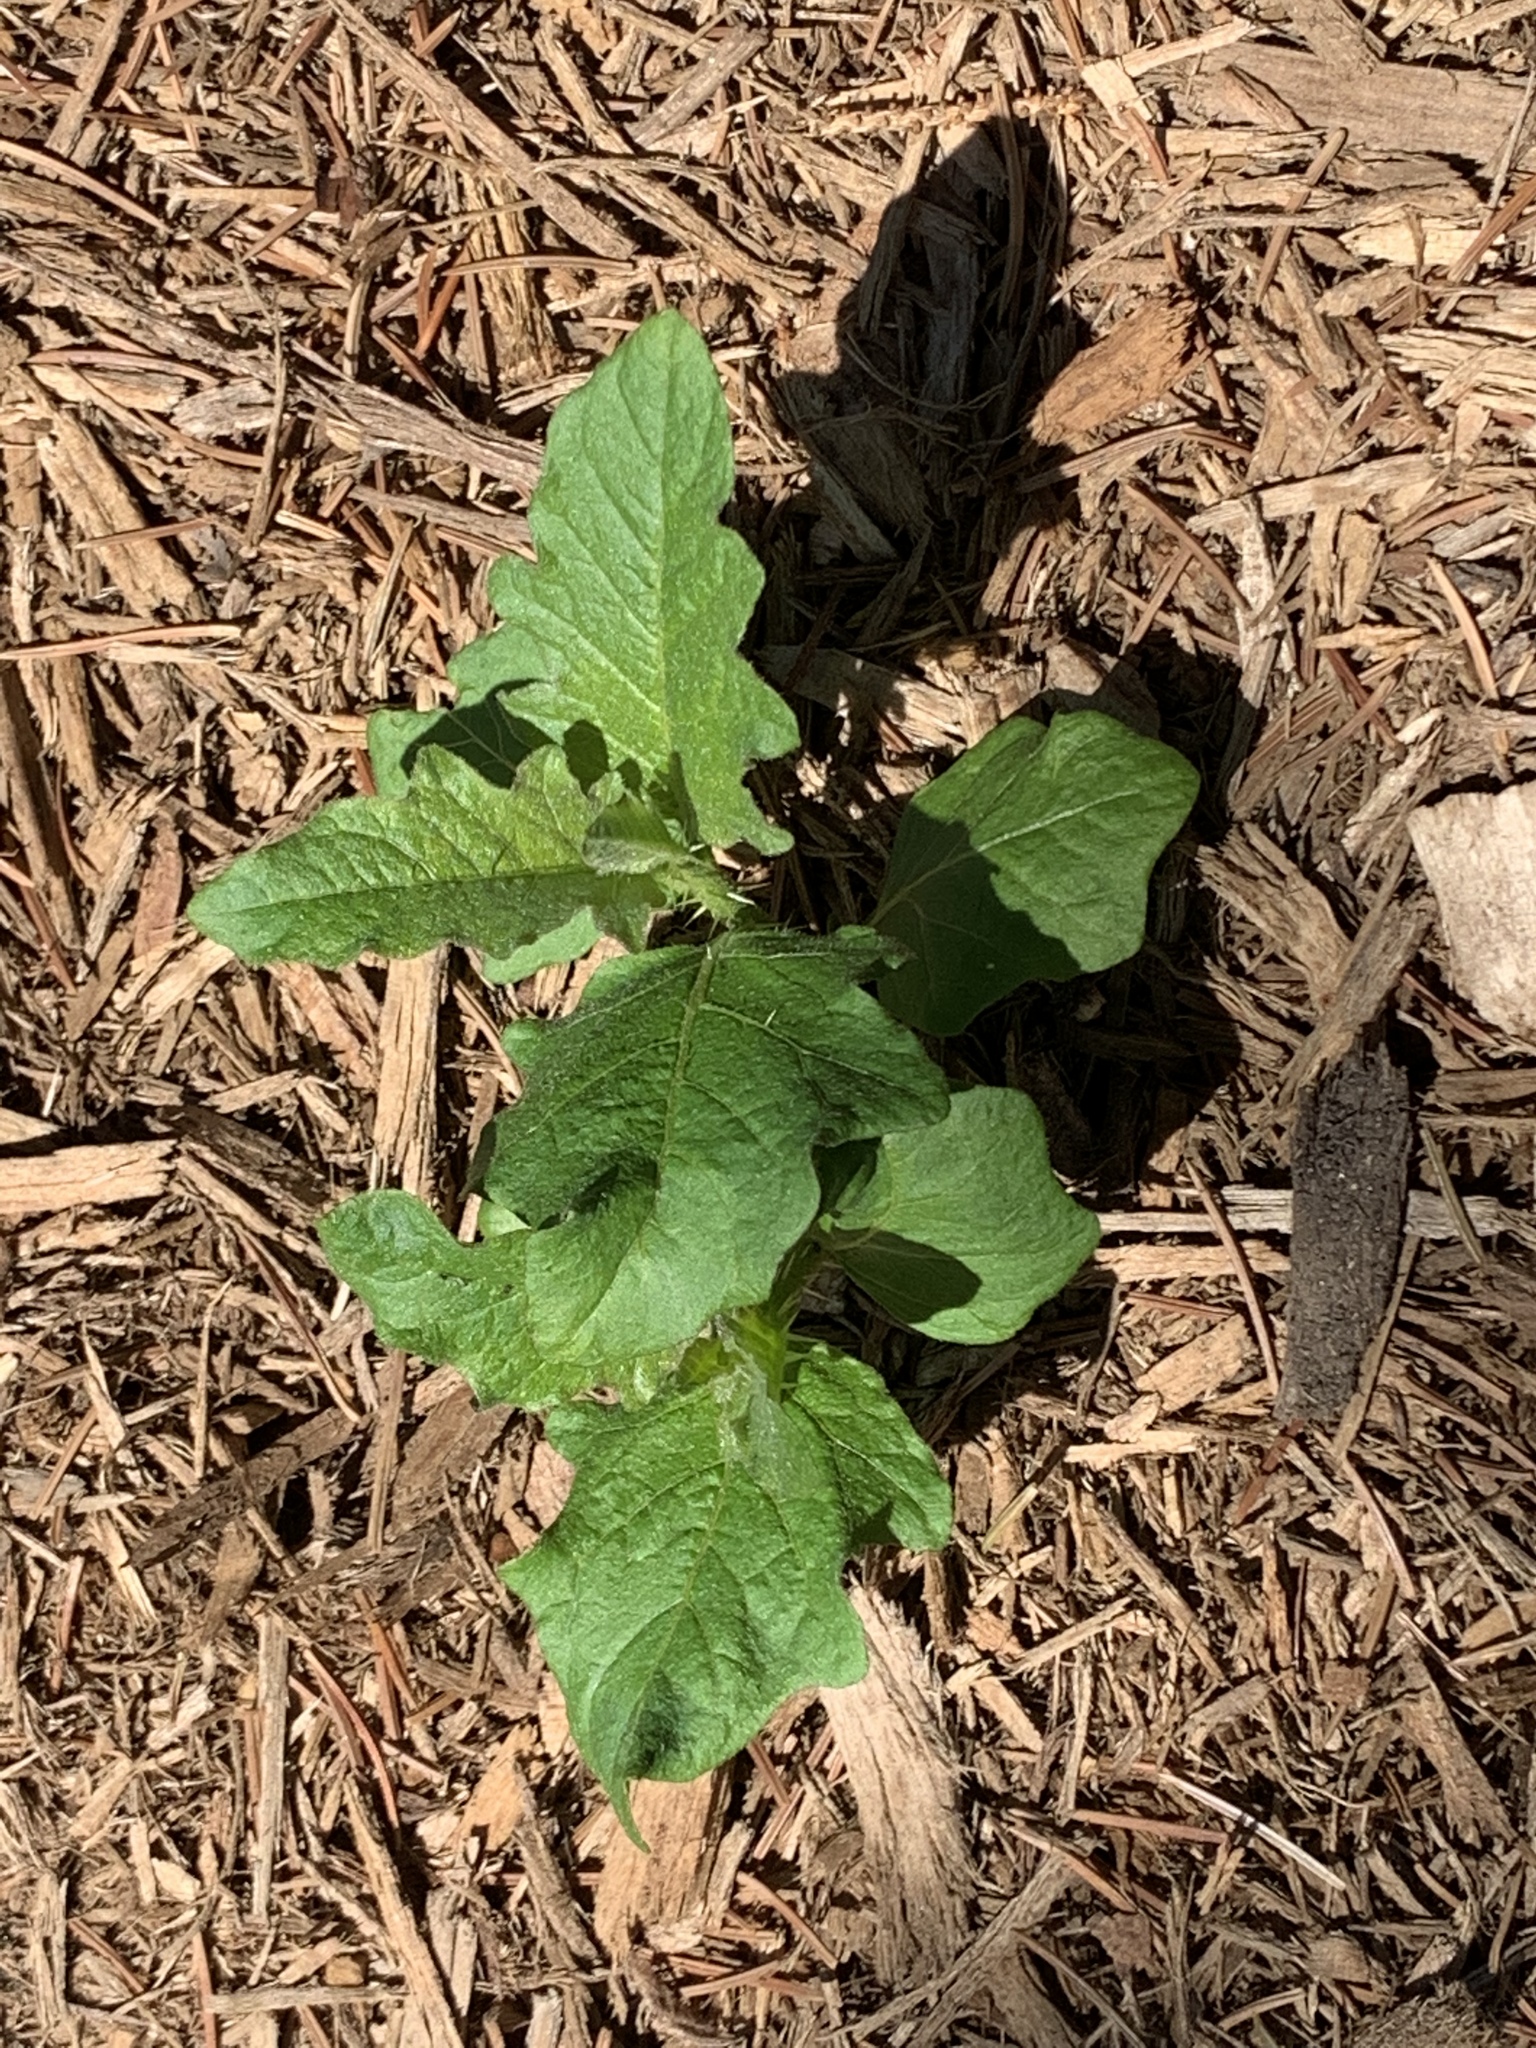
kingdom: Plantae
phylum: Tracheophyta
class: Magnoliopsida
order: Solanales
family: Solanaceae
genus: Solanum
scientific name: Solanum carolinense
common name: Horse-nettle
